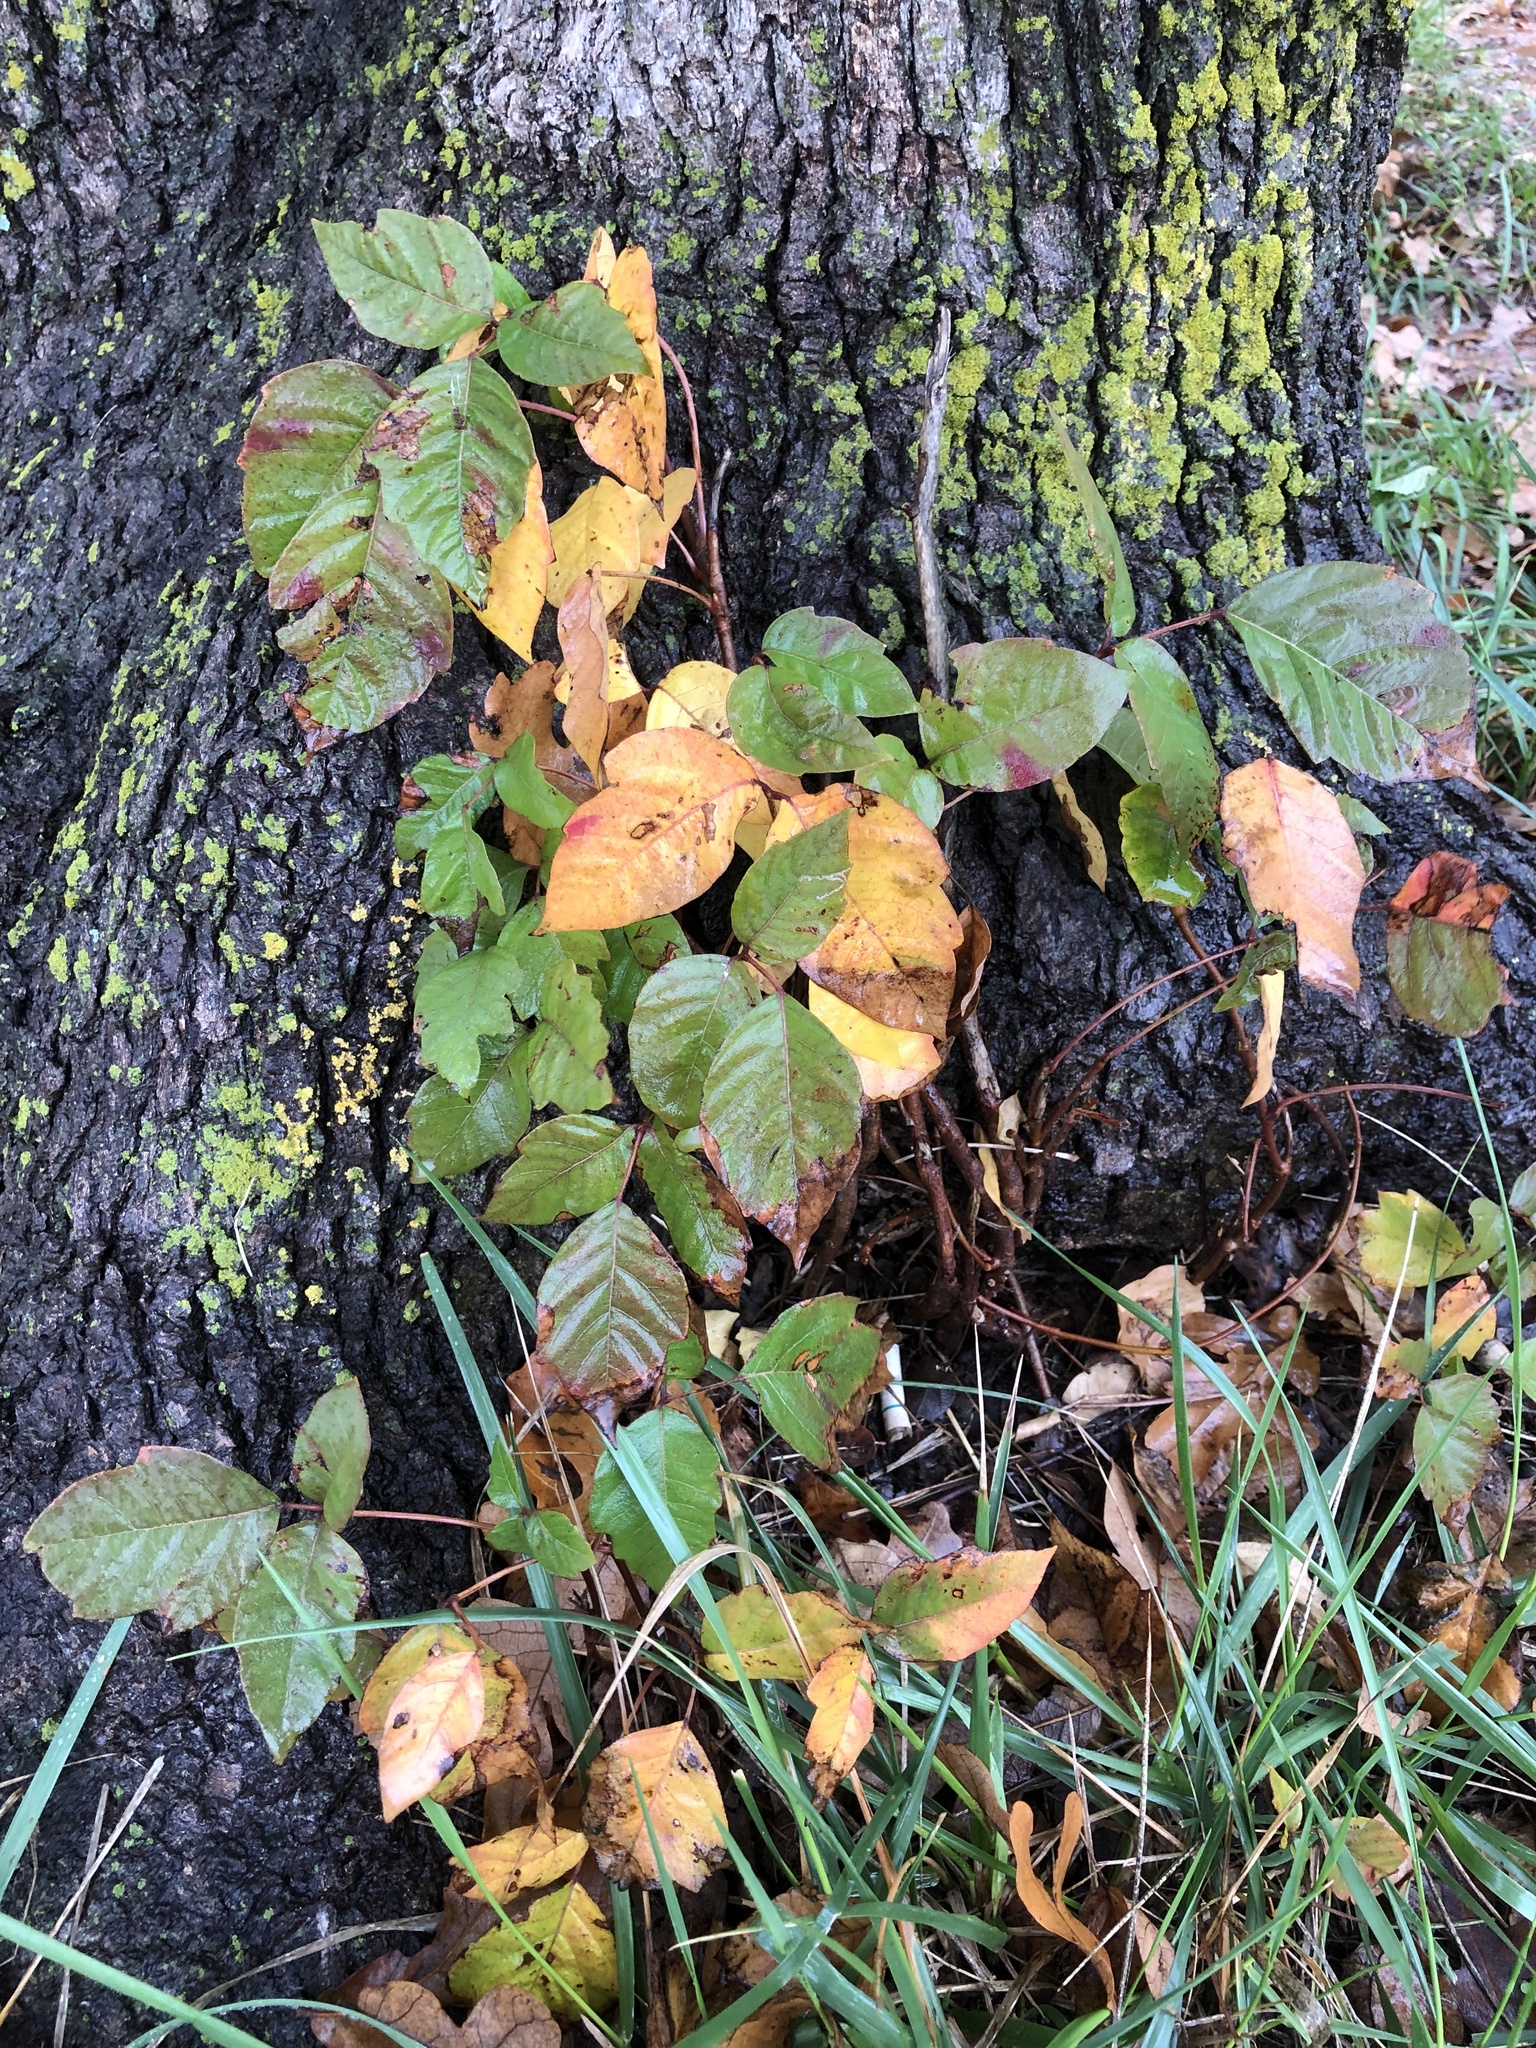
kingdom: Plantae
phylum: Tracheophyta
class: Magnoliopsida
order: Sapindales
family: Anacardiaceae
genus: Toxicodendron
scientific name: Toxicodendron radicans
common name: Poison ivy
